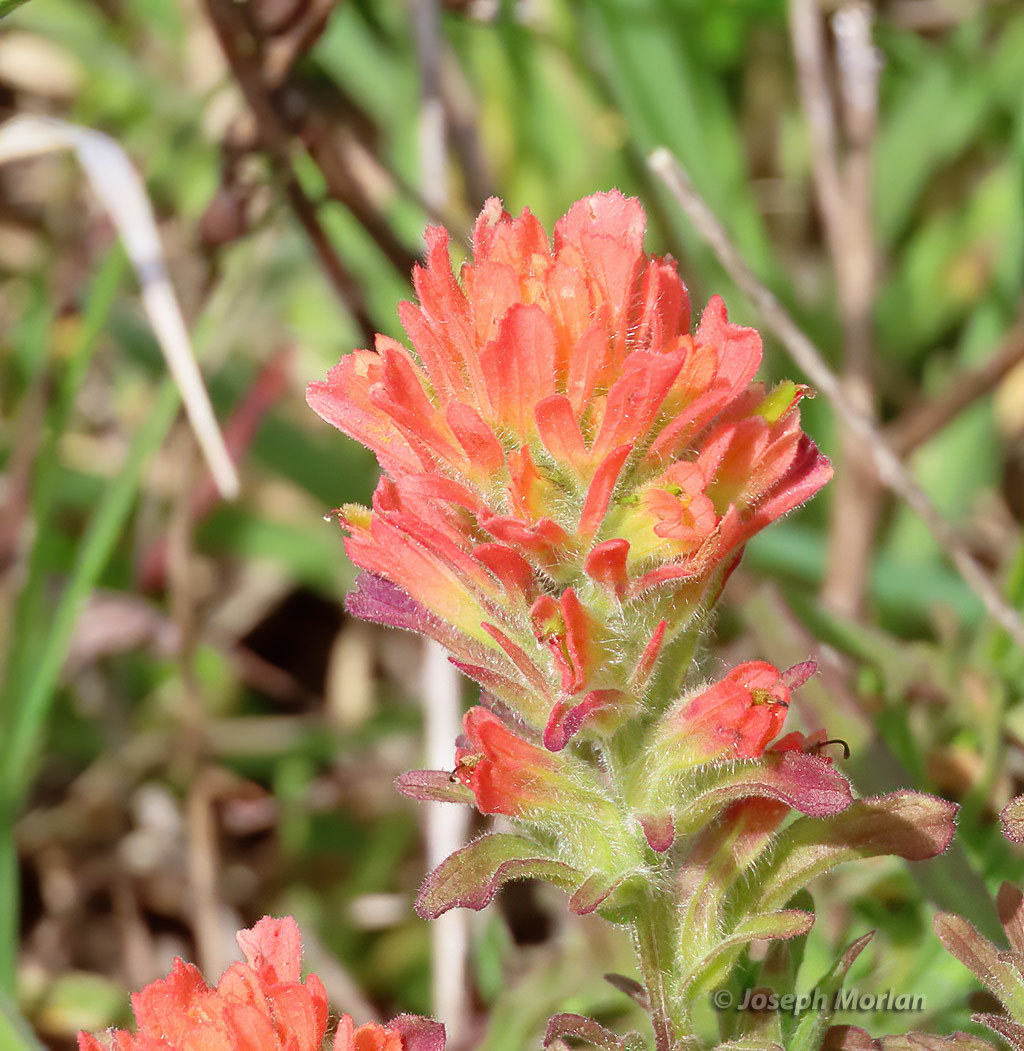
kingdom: Plantae
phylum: Tracheophyta
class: Magnoliopsida
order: Lamiales
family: Orobanchaceae
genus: Castilleja
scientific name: Castilleja wightii
